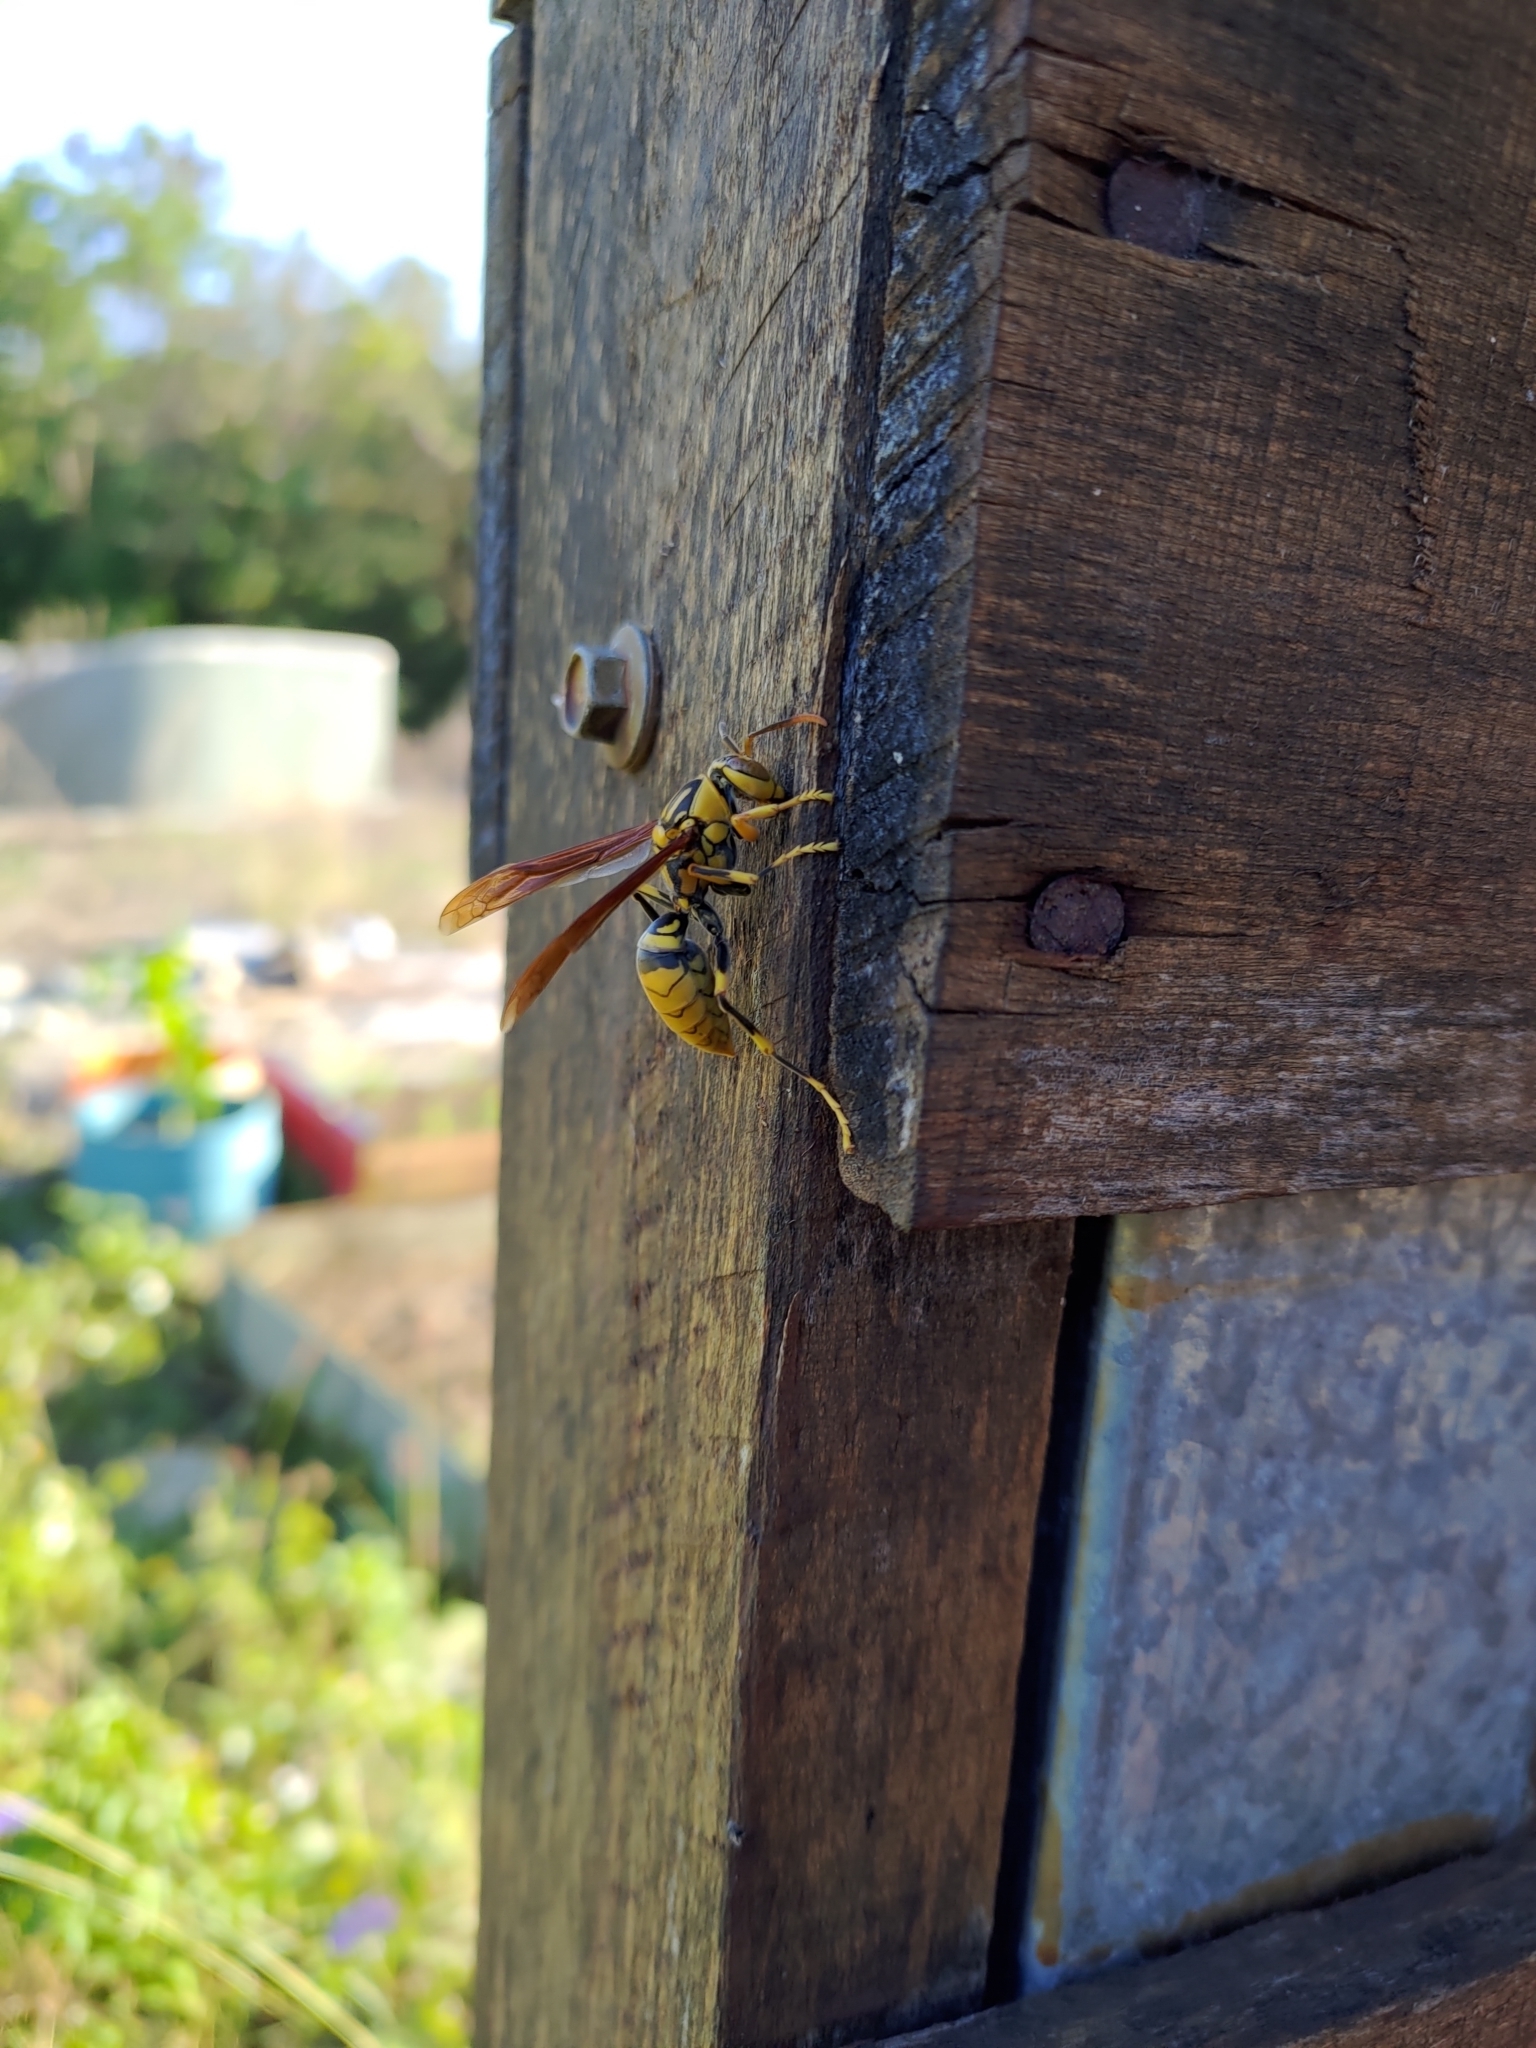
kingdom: Animalia
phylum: Arthropoda
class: Insecta
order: Hymenoptera
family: Eumenidae
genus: Polistes
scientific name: Polistes rothneyi
